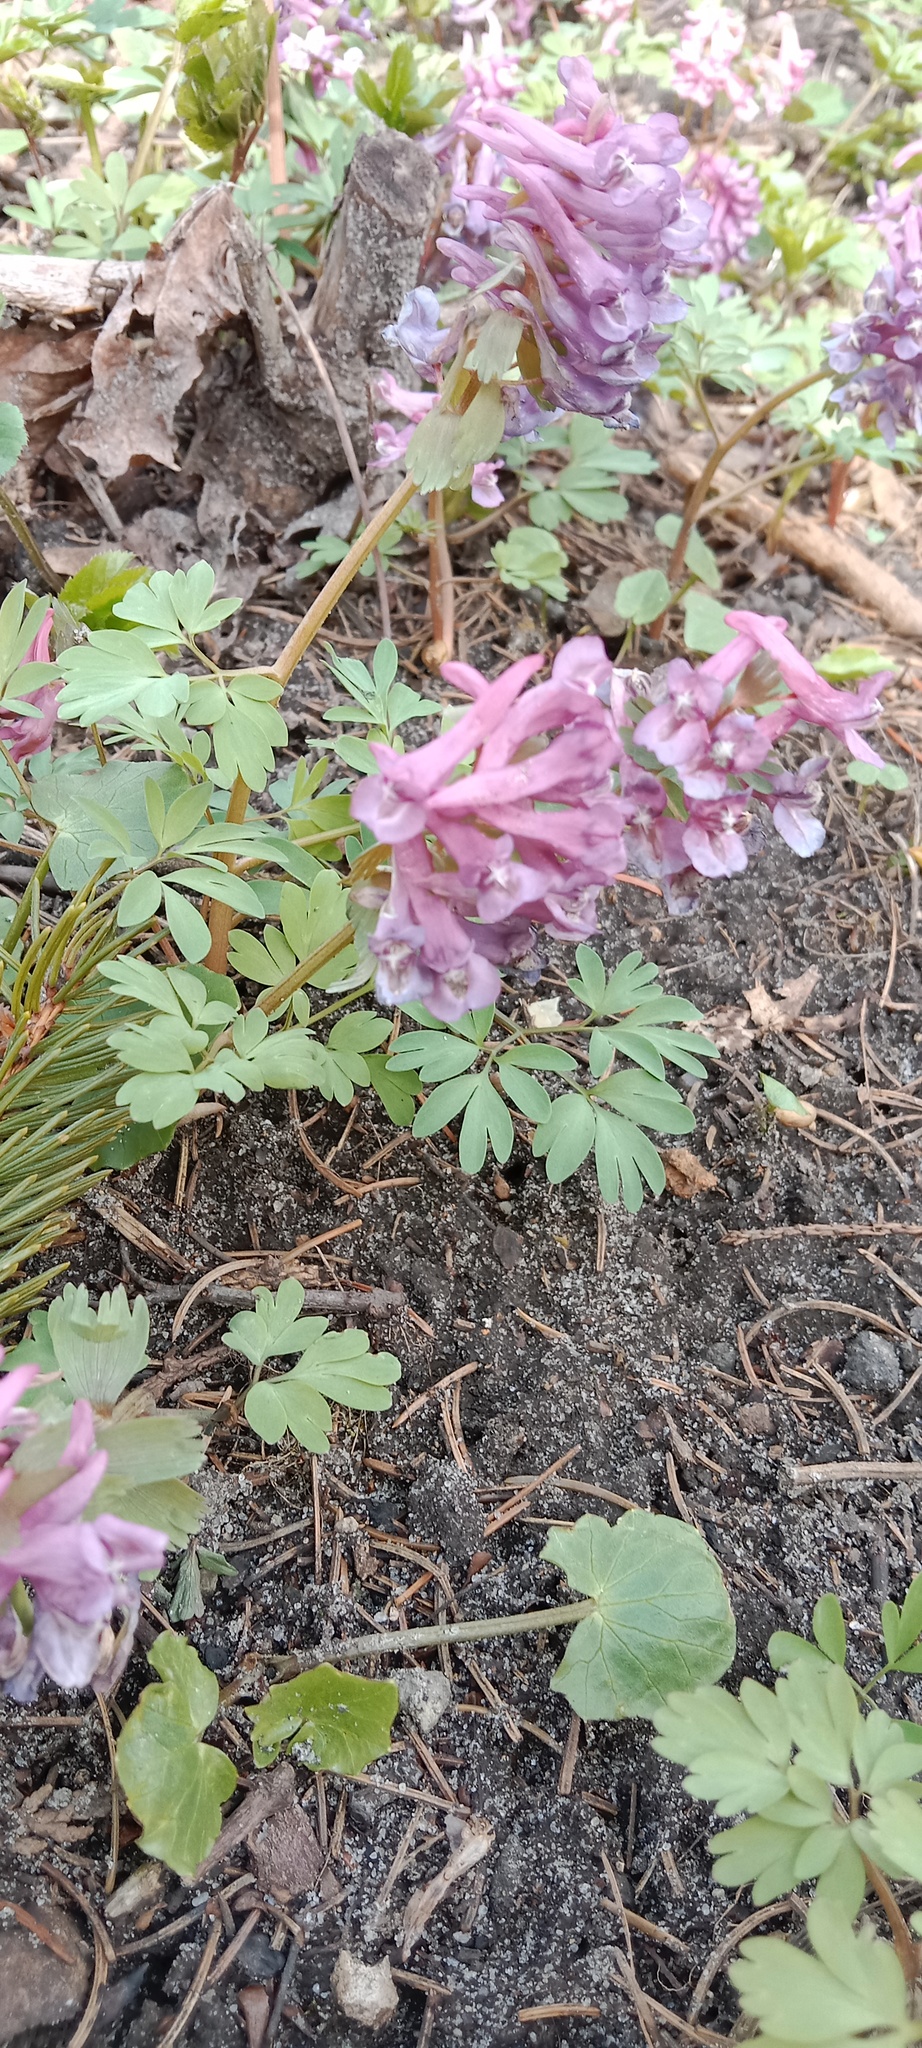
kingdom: Plantae
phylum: Tracheophyta
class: Magnoliopsida
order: Ranunculales
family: Papaveraceae
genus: Corydalis
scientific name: Corydalis solida
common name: Bird-in-a-bush
